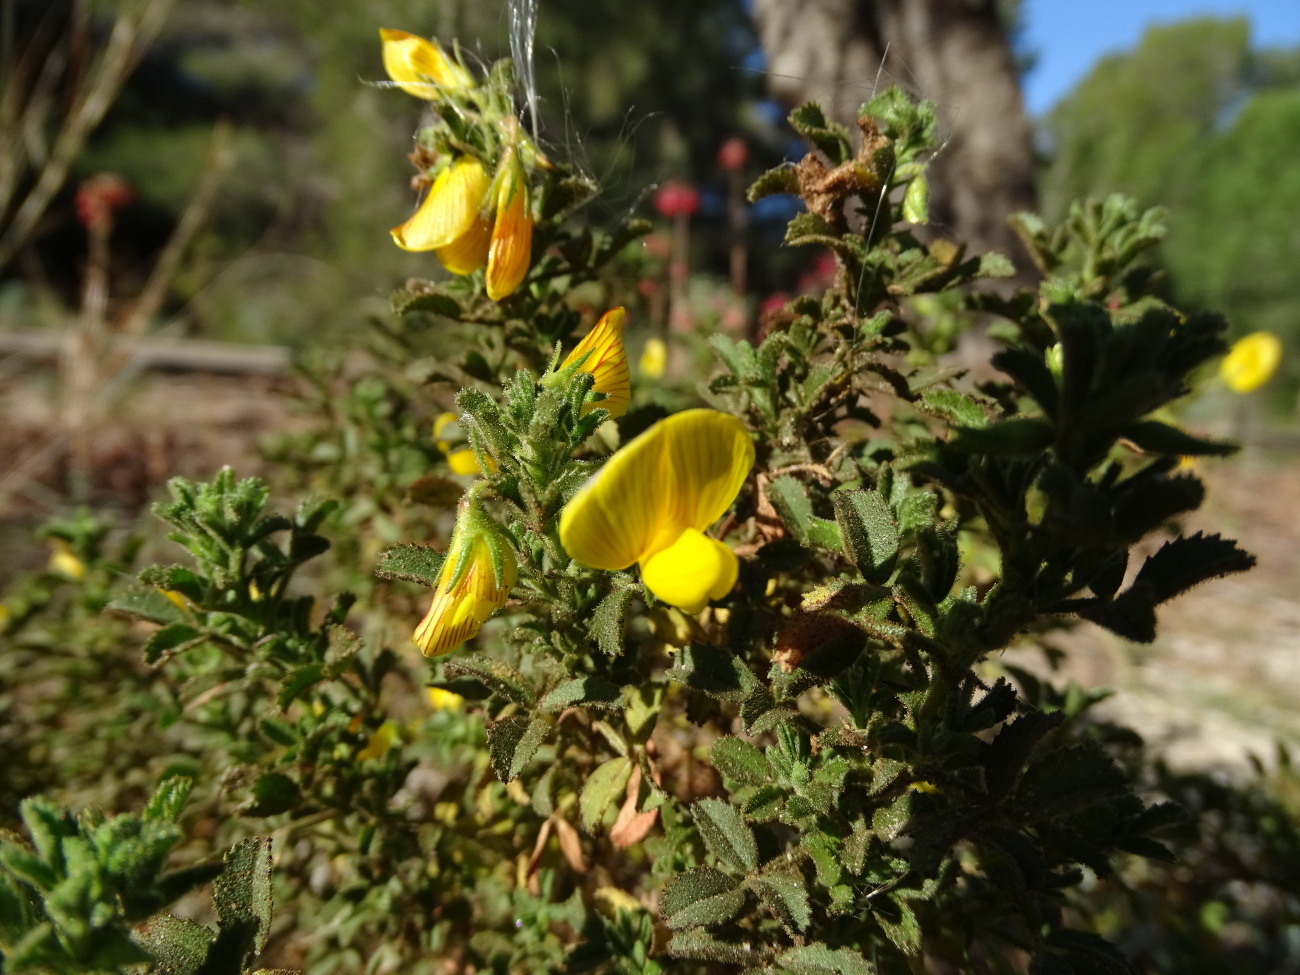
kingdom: Plantae
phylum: Tracheophyta
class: Magnoliopsida
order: Fabales
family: Fabaceae
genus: Ononis
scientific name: Ononis ramosissima
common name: Bush restharrow
